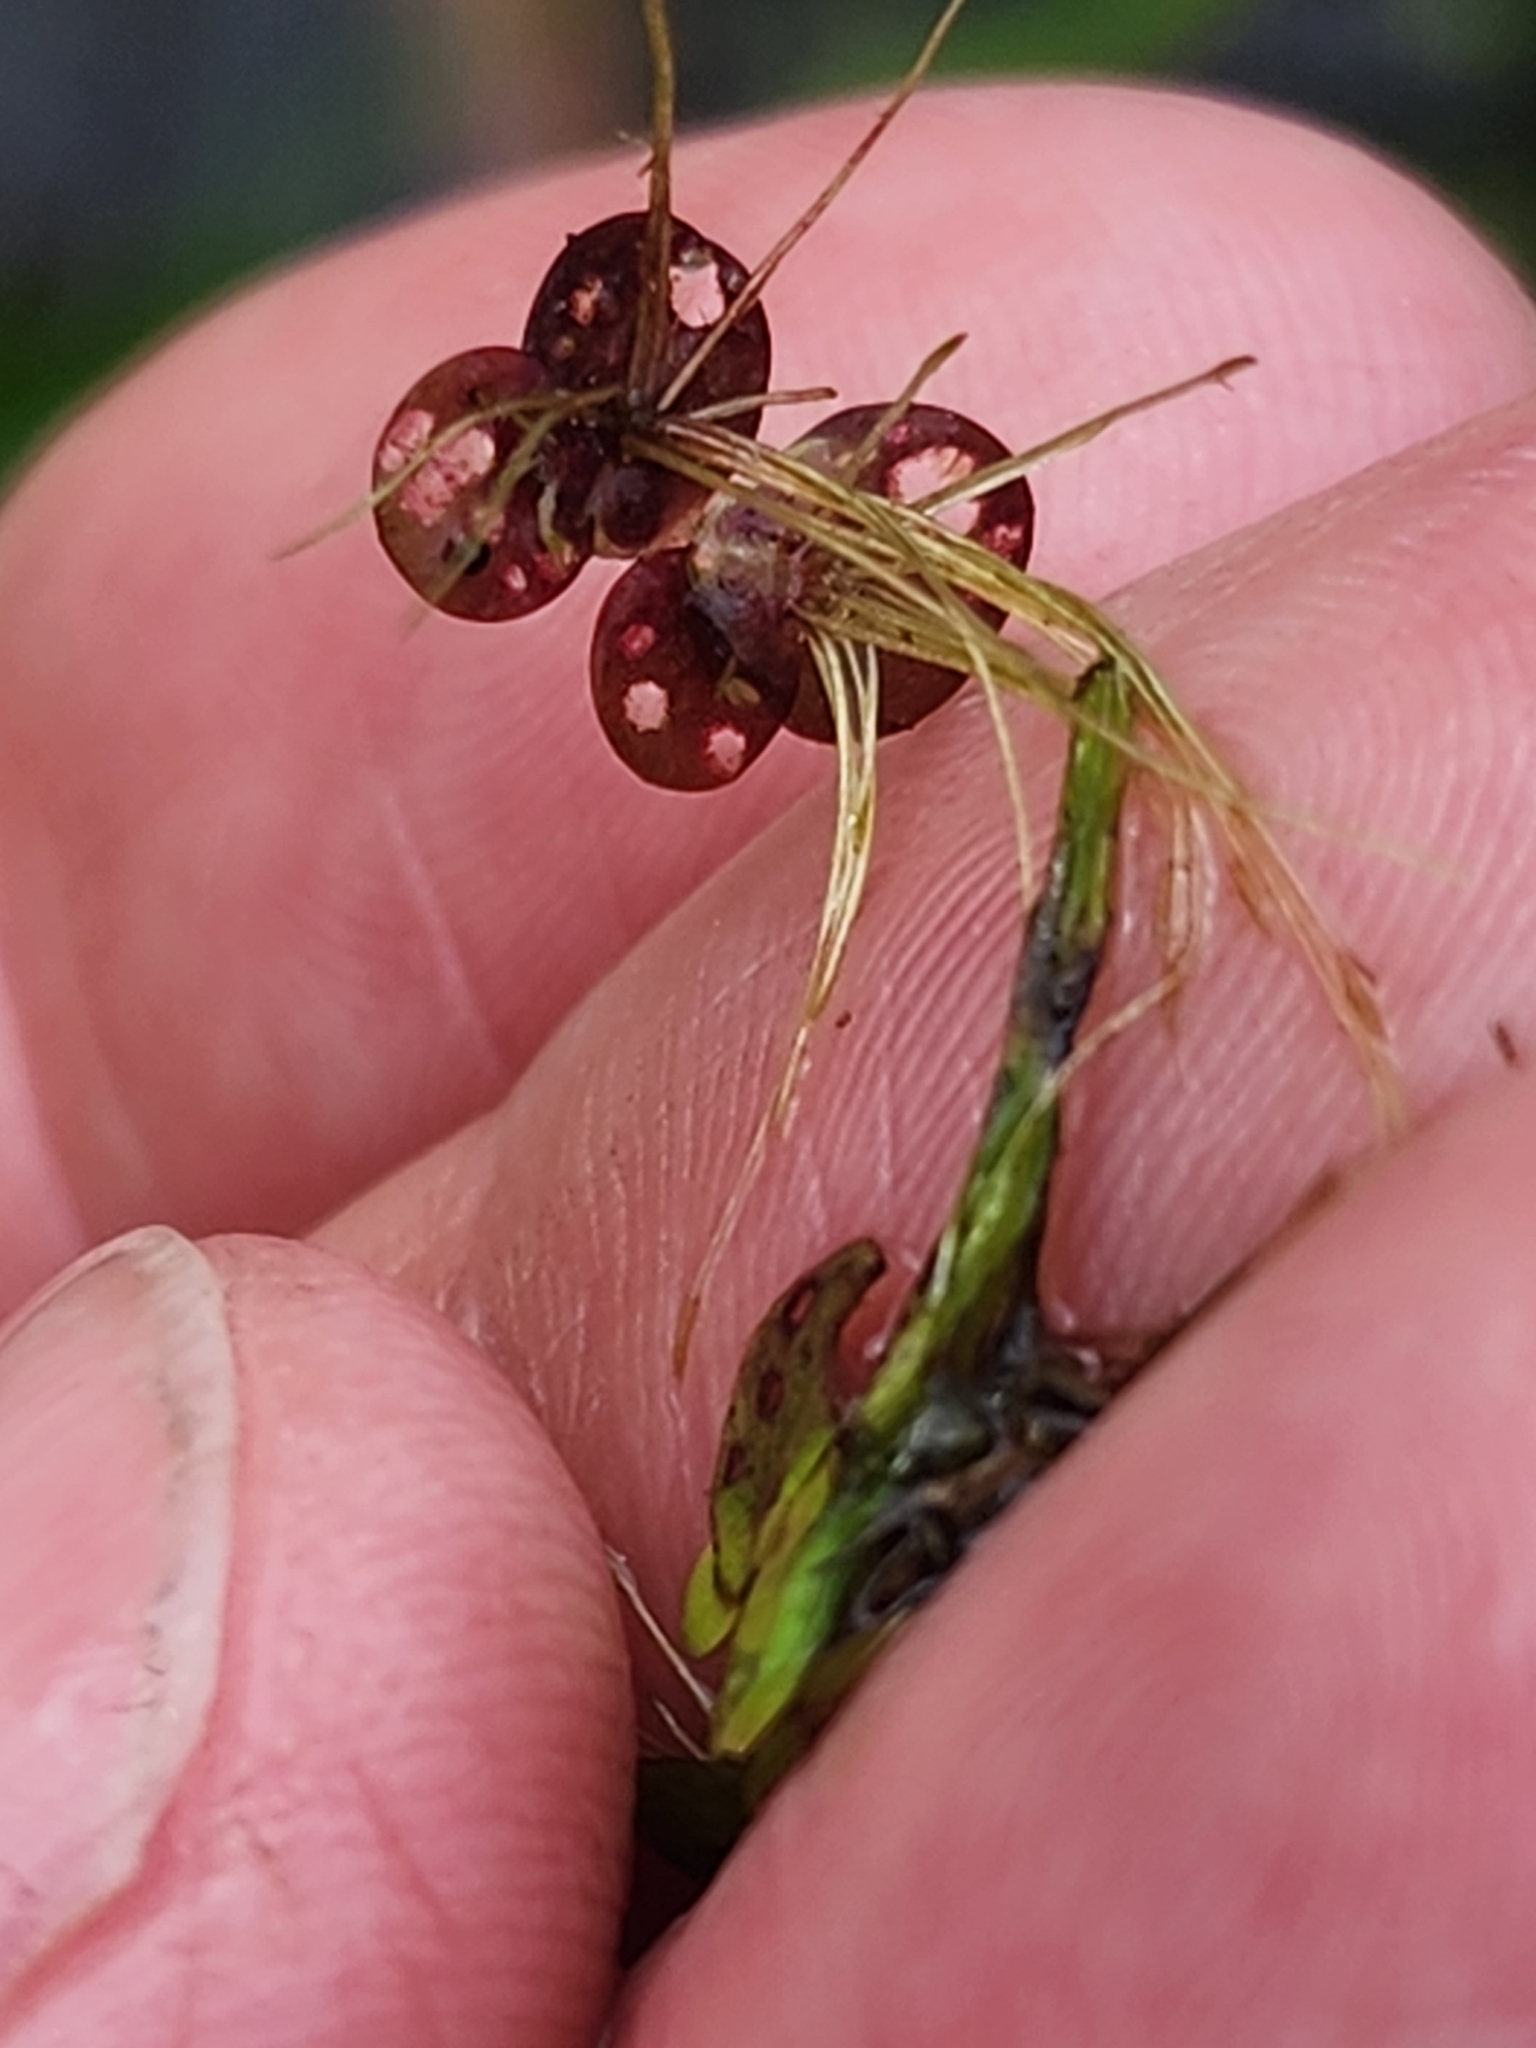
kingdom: Plantae
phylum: Tracheophyta
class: Liliopsida
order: Alismatales
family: Araceae
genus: Spirodela
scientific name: Spirodela polyrhiza
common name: Great duckweed
